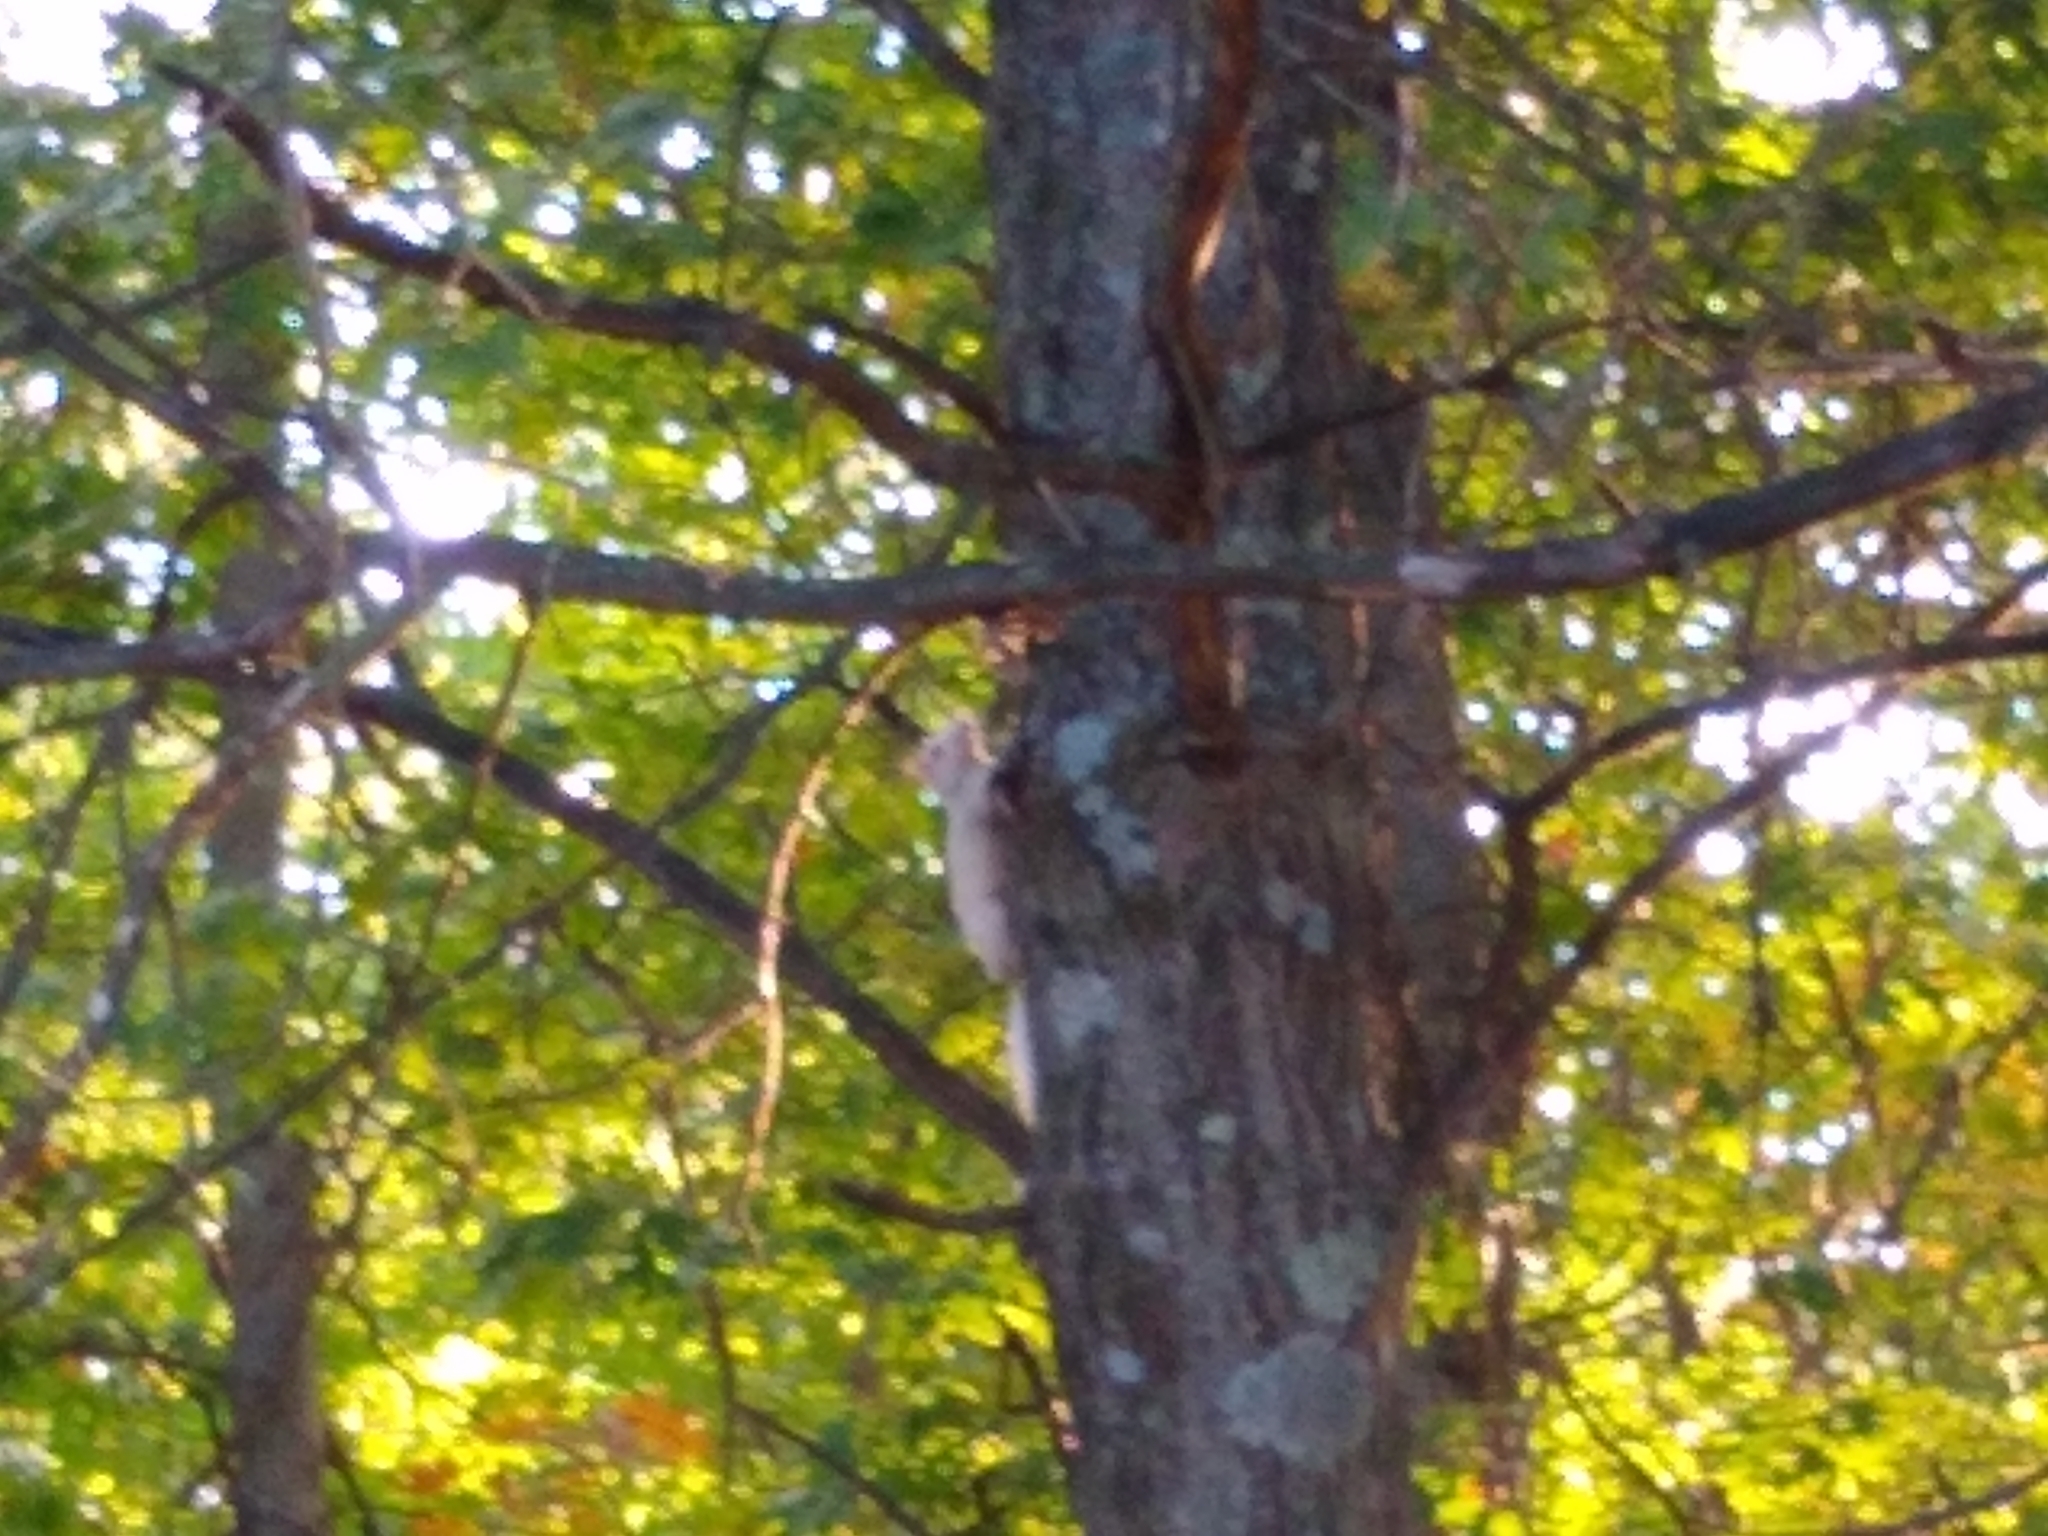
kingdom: Animalia
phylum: Chordata
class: Mammalia
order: Rodentia
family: Sciuridae
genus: Sciurus
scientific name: Sciurus carolinensis
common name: Eastern gray squirrel
